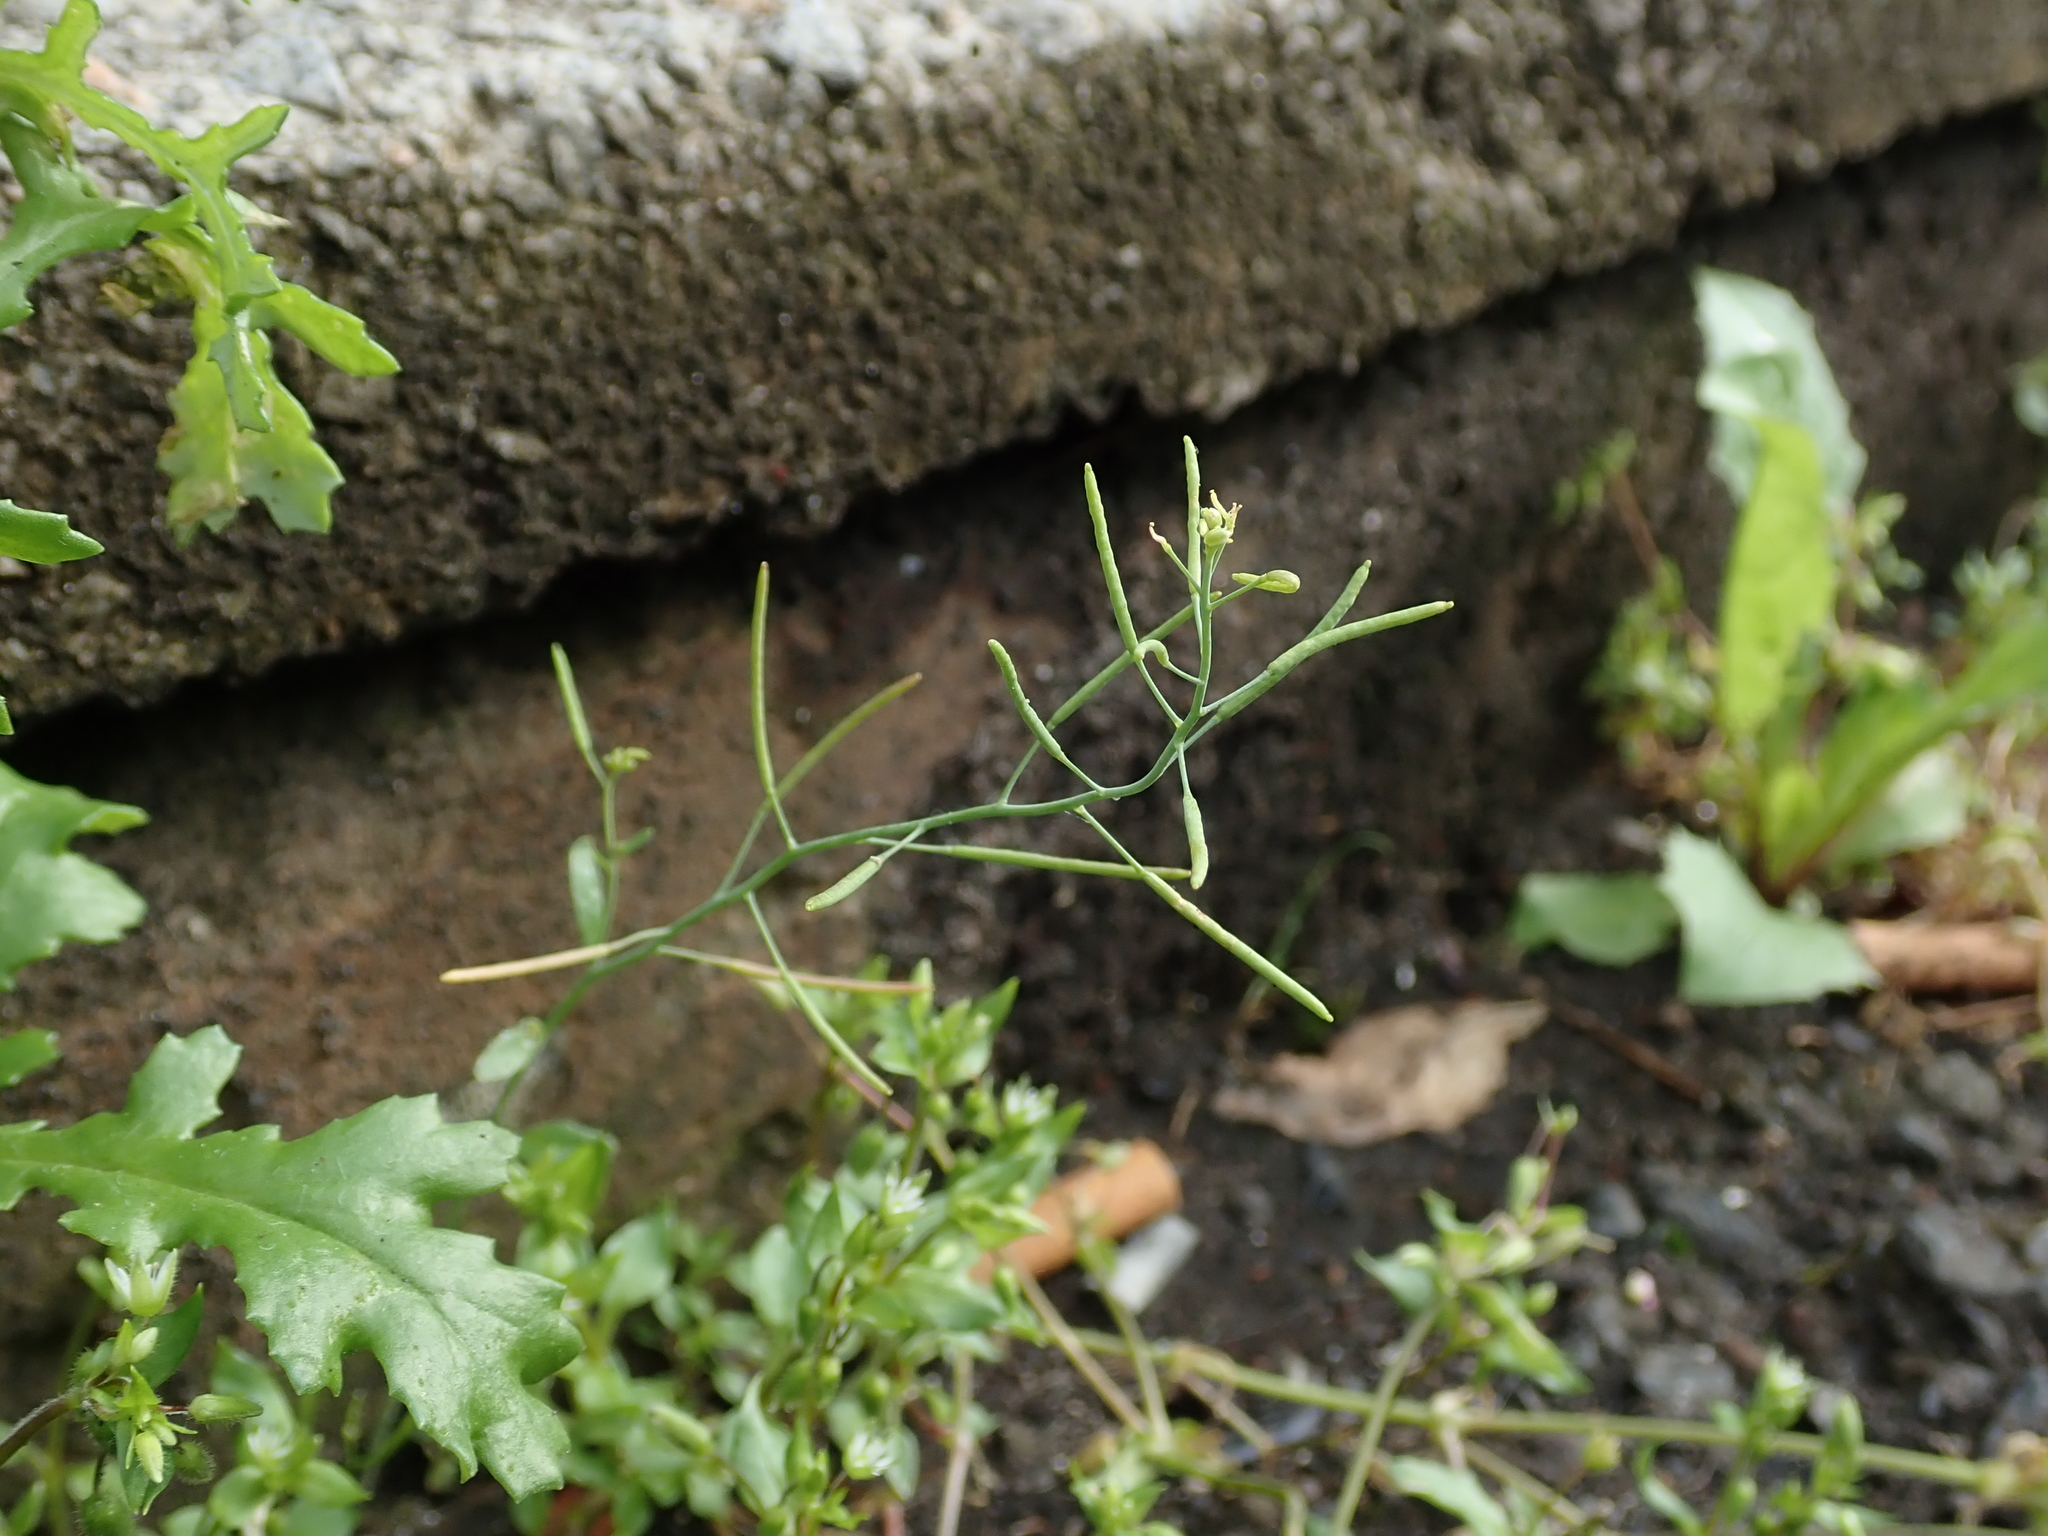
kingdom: Plantae
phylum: Tracheophyta
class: Magnoliopsida
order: Brassicales
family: Brassicaceae
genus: Arabidopsis
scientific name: Arabidopsis thaliana
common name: Thale cress
